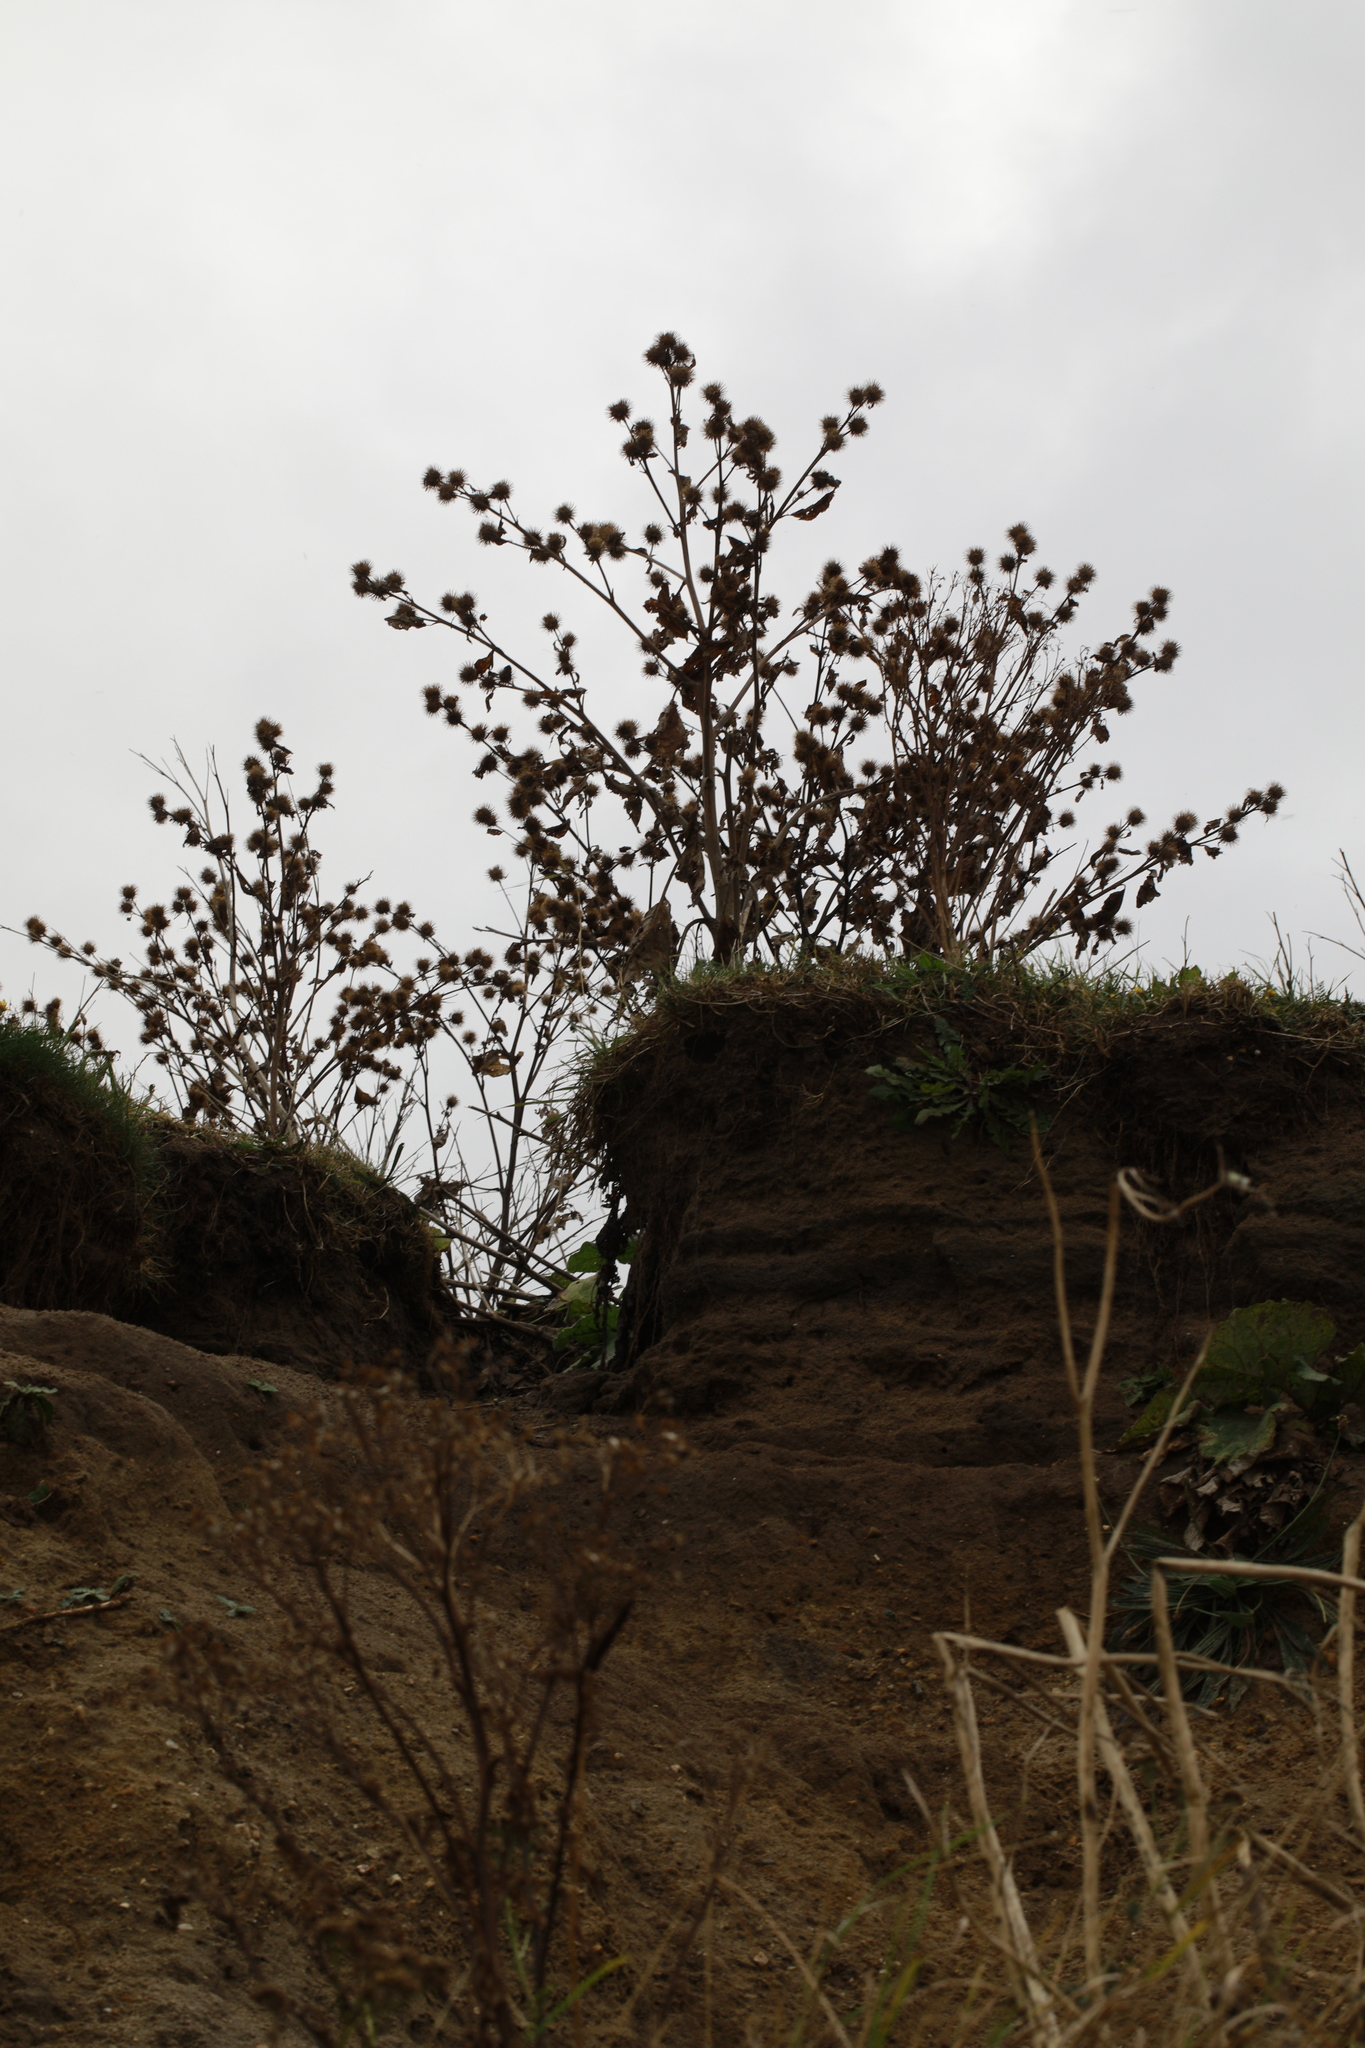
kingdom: Plantae
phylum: Tracheophyta
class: Magnoliopsida
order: Asterales
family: Asteraceae
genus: Arctium
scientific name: Arctium minus
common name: Lesser burdock
